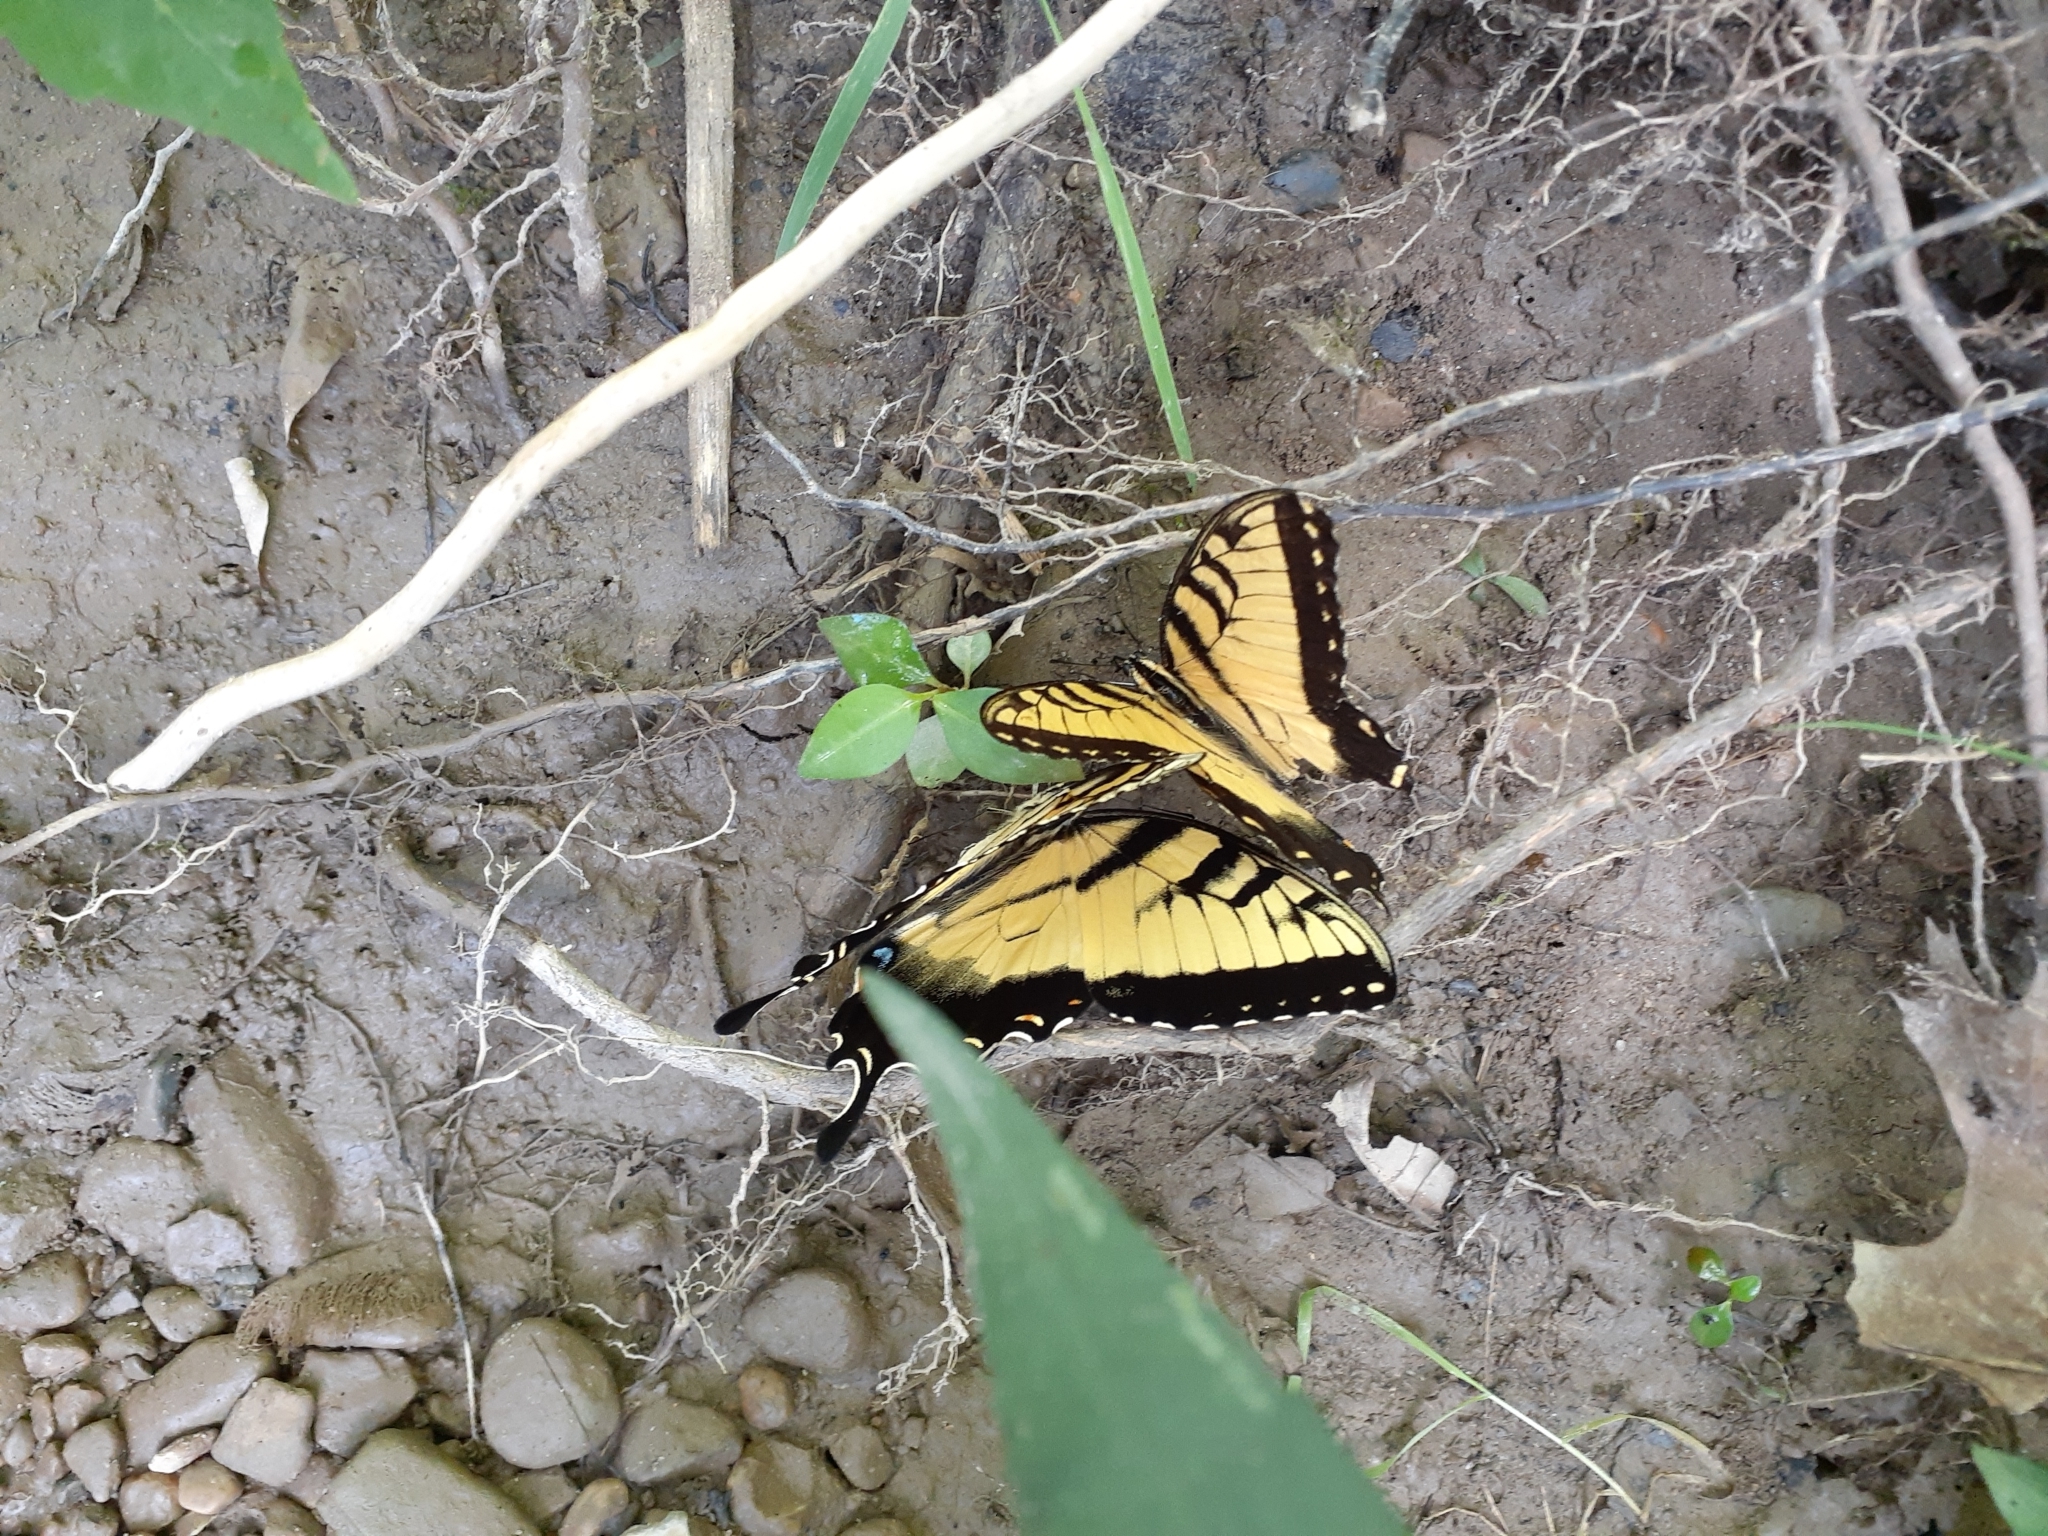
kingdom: Animalia
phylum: Arthropoda
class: Insecta
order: Lepidoptera
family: Papilionidae
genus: Papilio
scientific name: Papilio glaucus
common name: Tiger swallowtail
